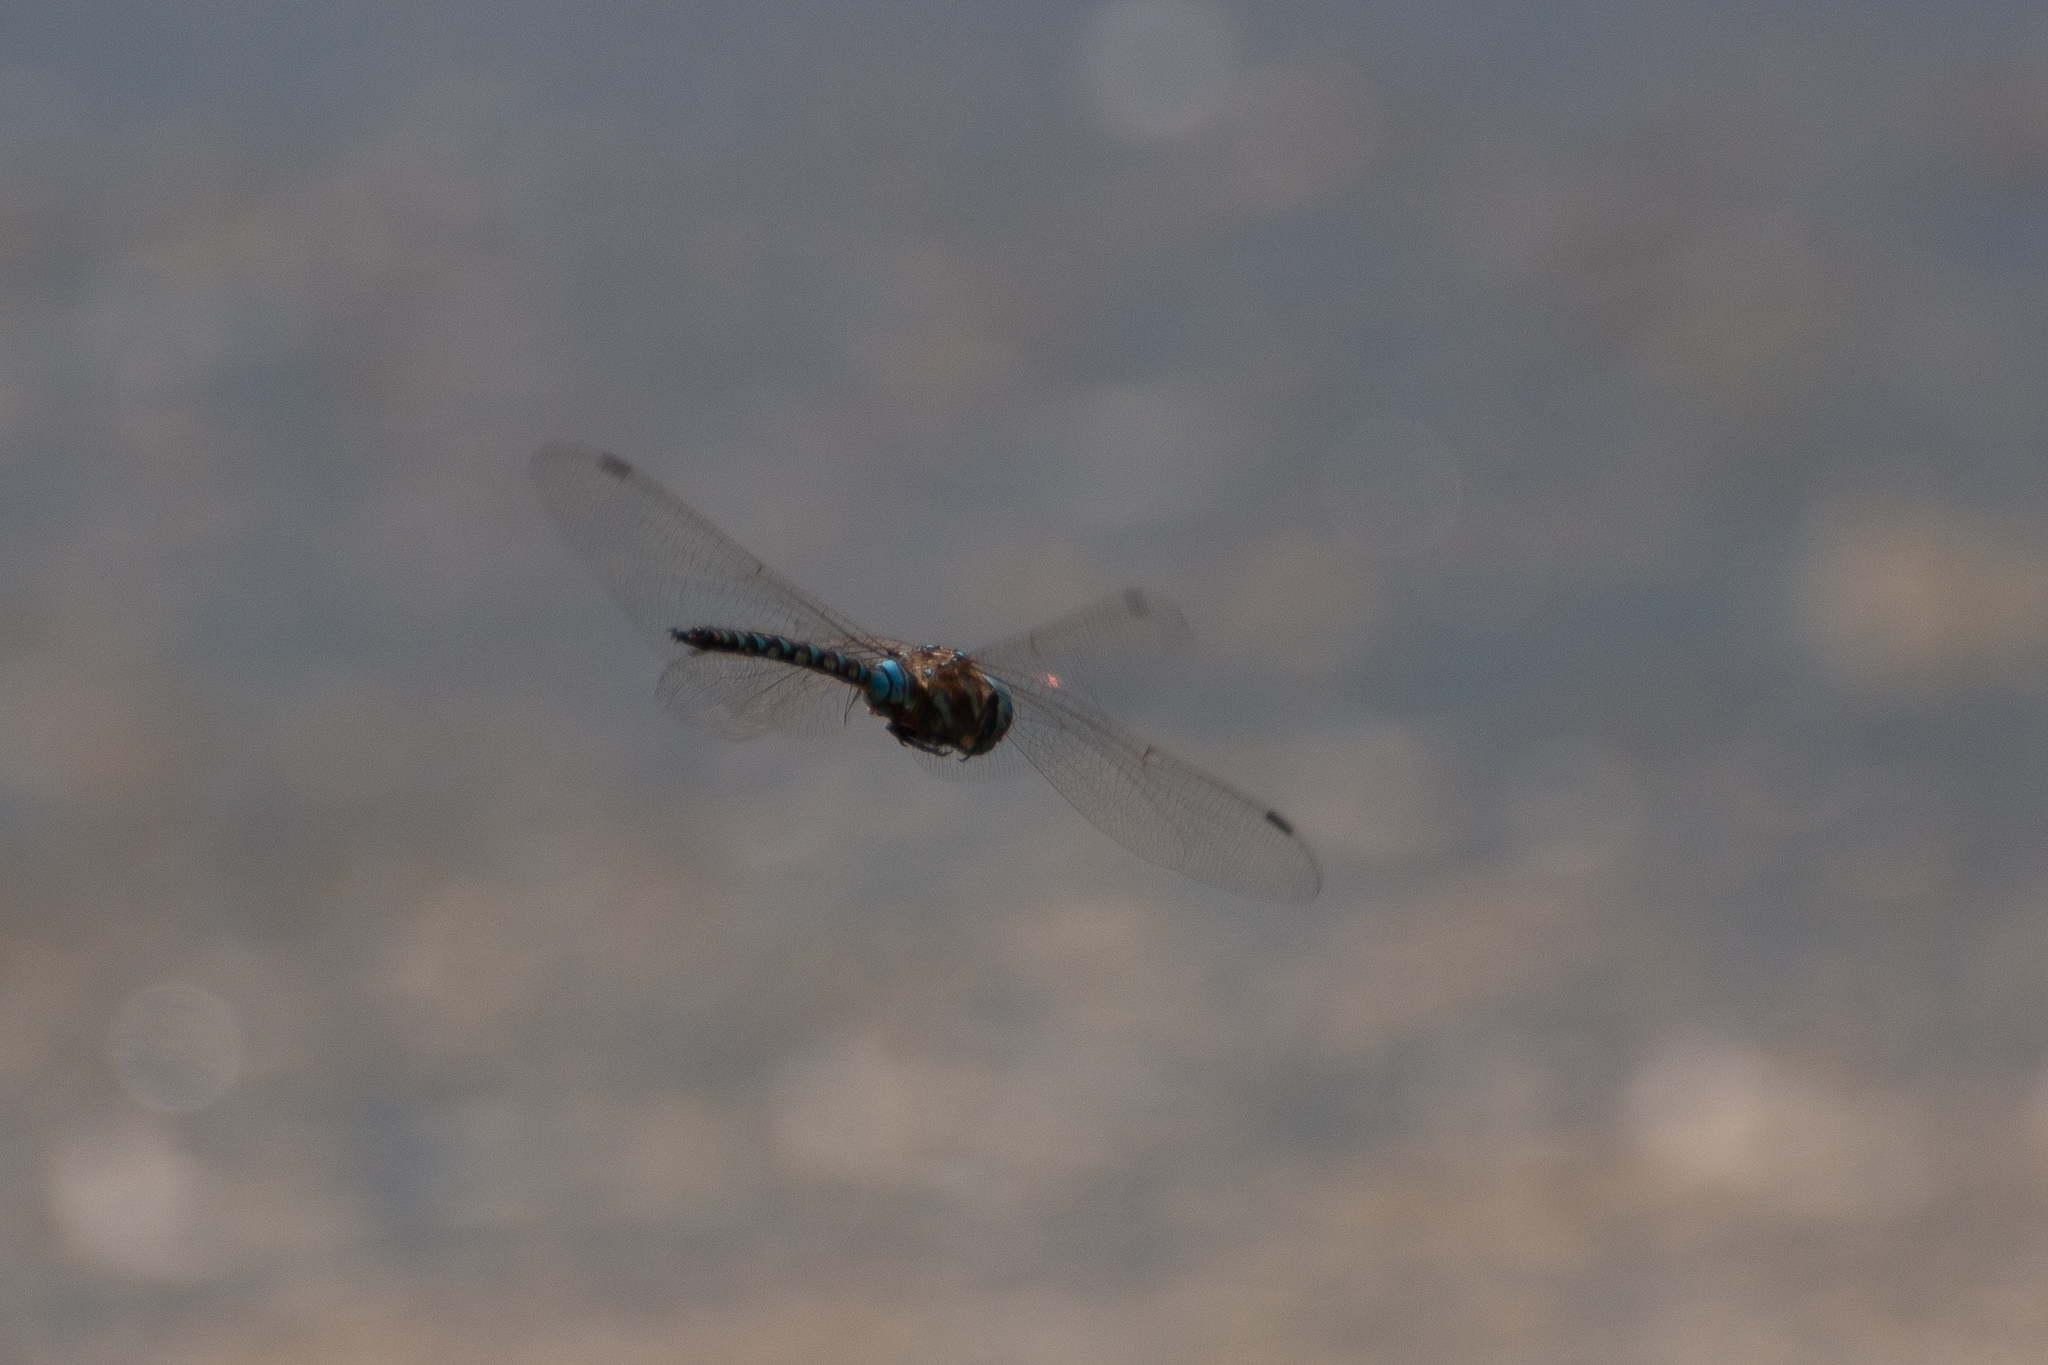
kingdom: Animalia
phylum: Arthropoda
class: Insecta
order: Odonata
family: Aeshnidae
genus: Rhionaeschna
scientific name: Rhionaeschna multicolor
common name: Blue-eyed darner
